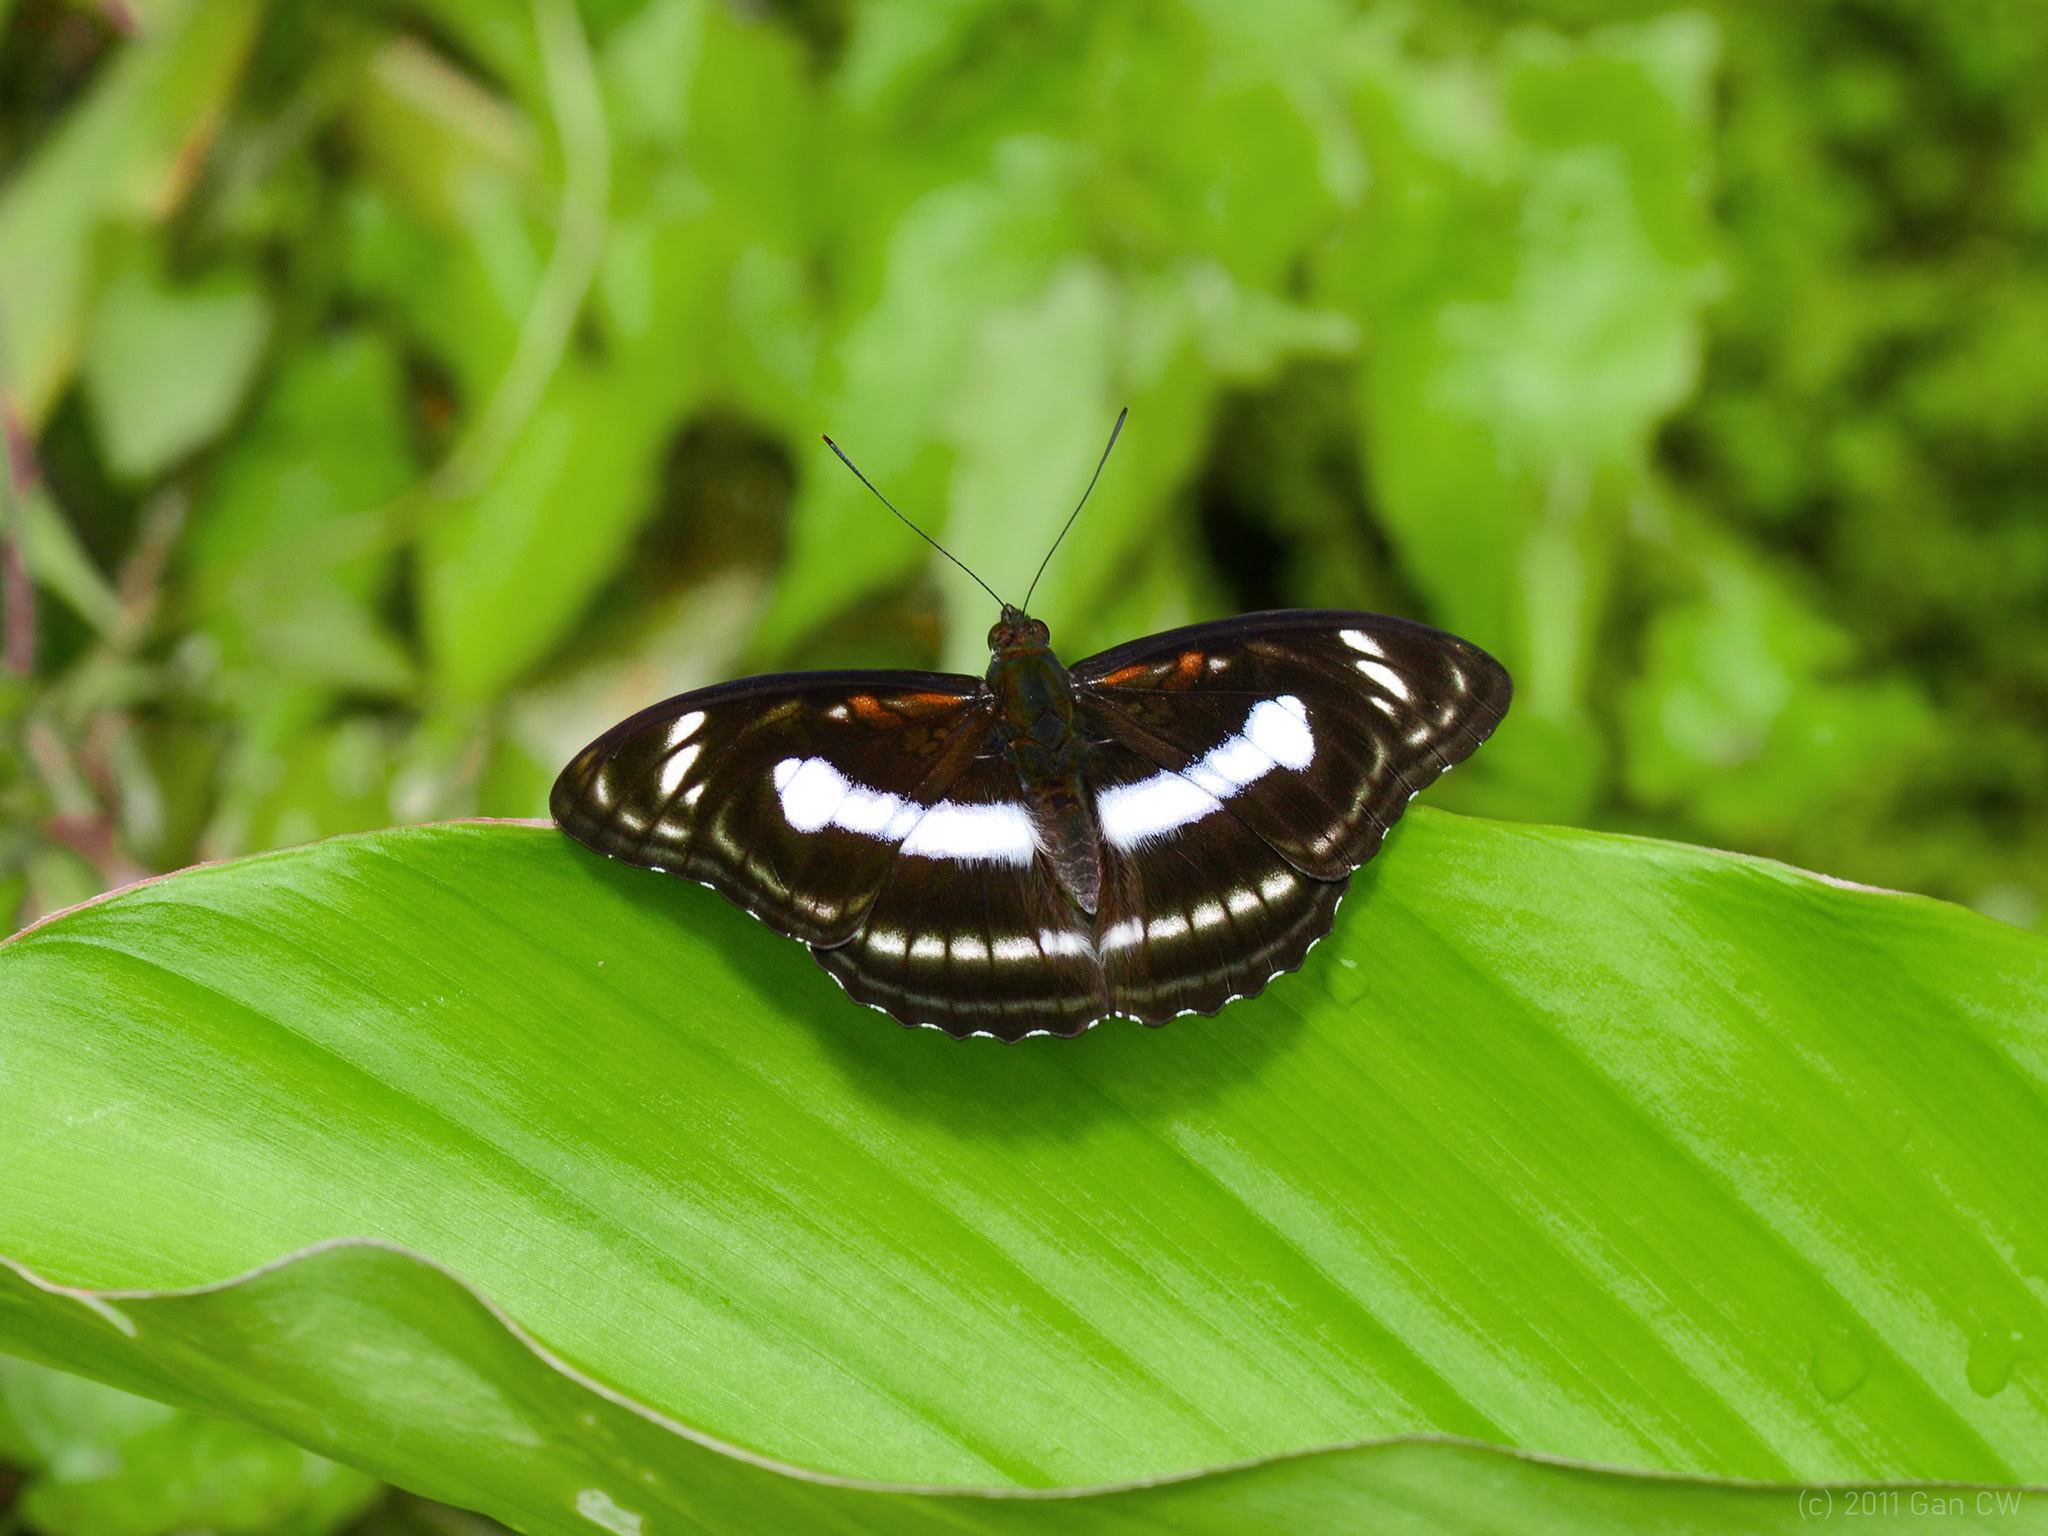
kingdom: Animalia
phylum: Arthropoda
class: Insecta
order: Lepidoptera
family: Nymphalidae
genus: Parathyma
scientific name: Parathyma selenophora
